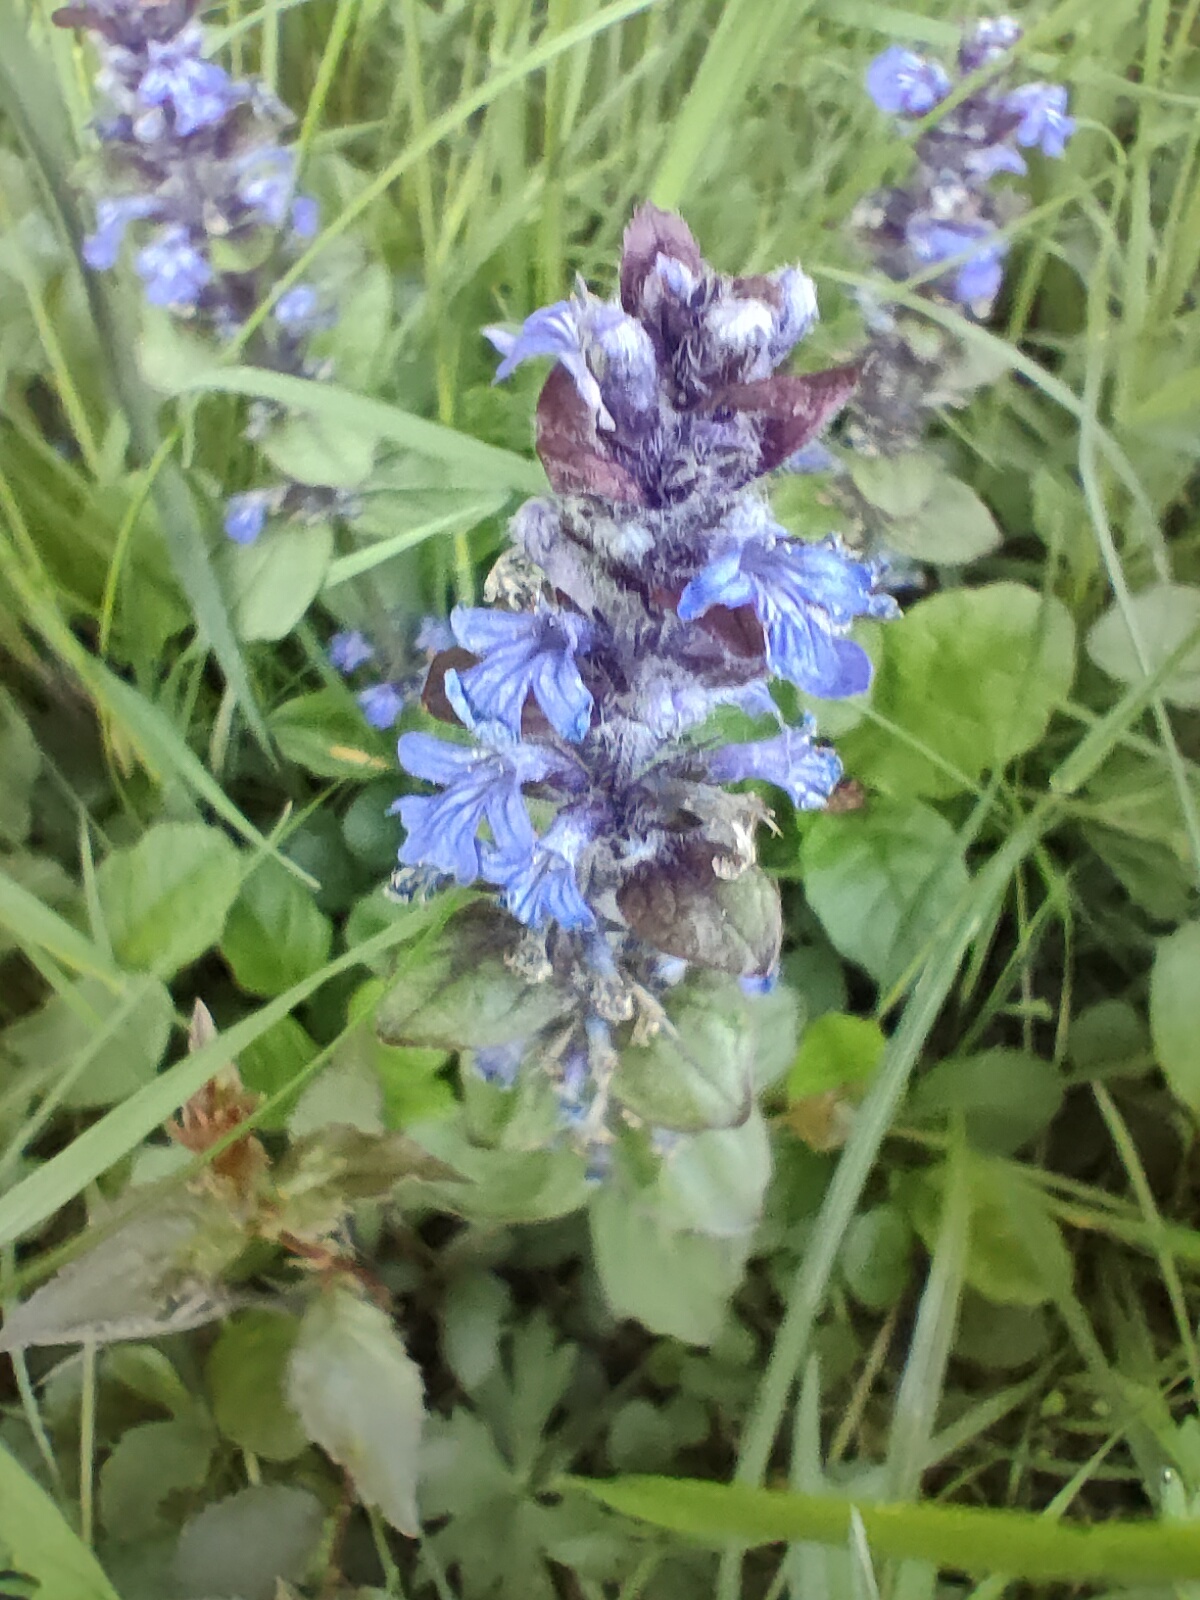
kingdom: Plantae
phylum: Tracheophyta
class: Magnoliopsida
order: Lamiales
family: Lamiaceae
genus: Ajuga
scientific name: Ajuga reptans
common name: Bugle
